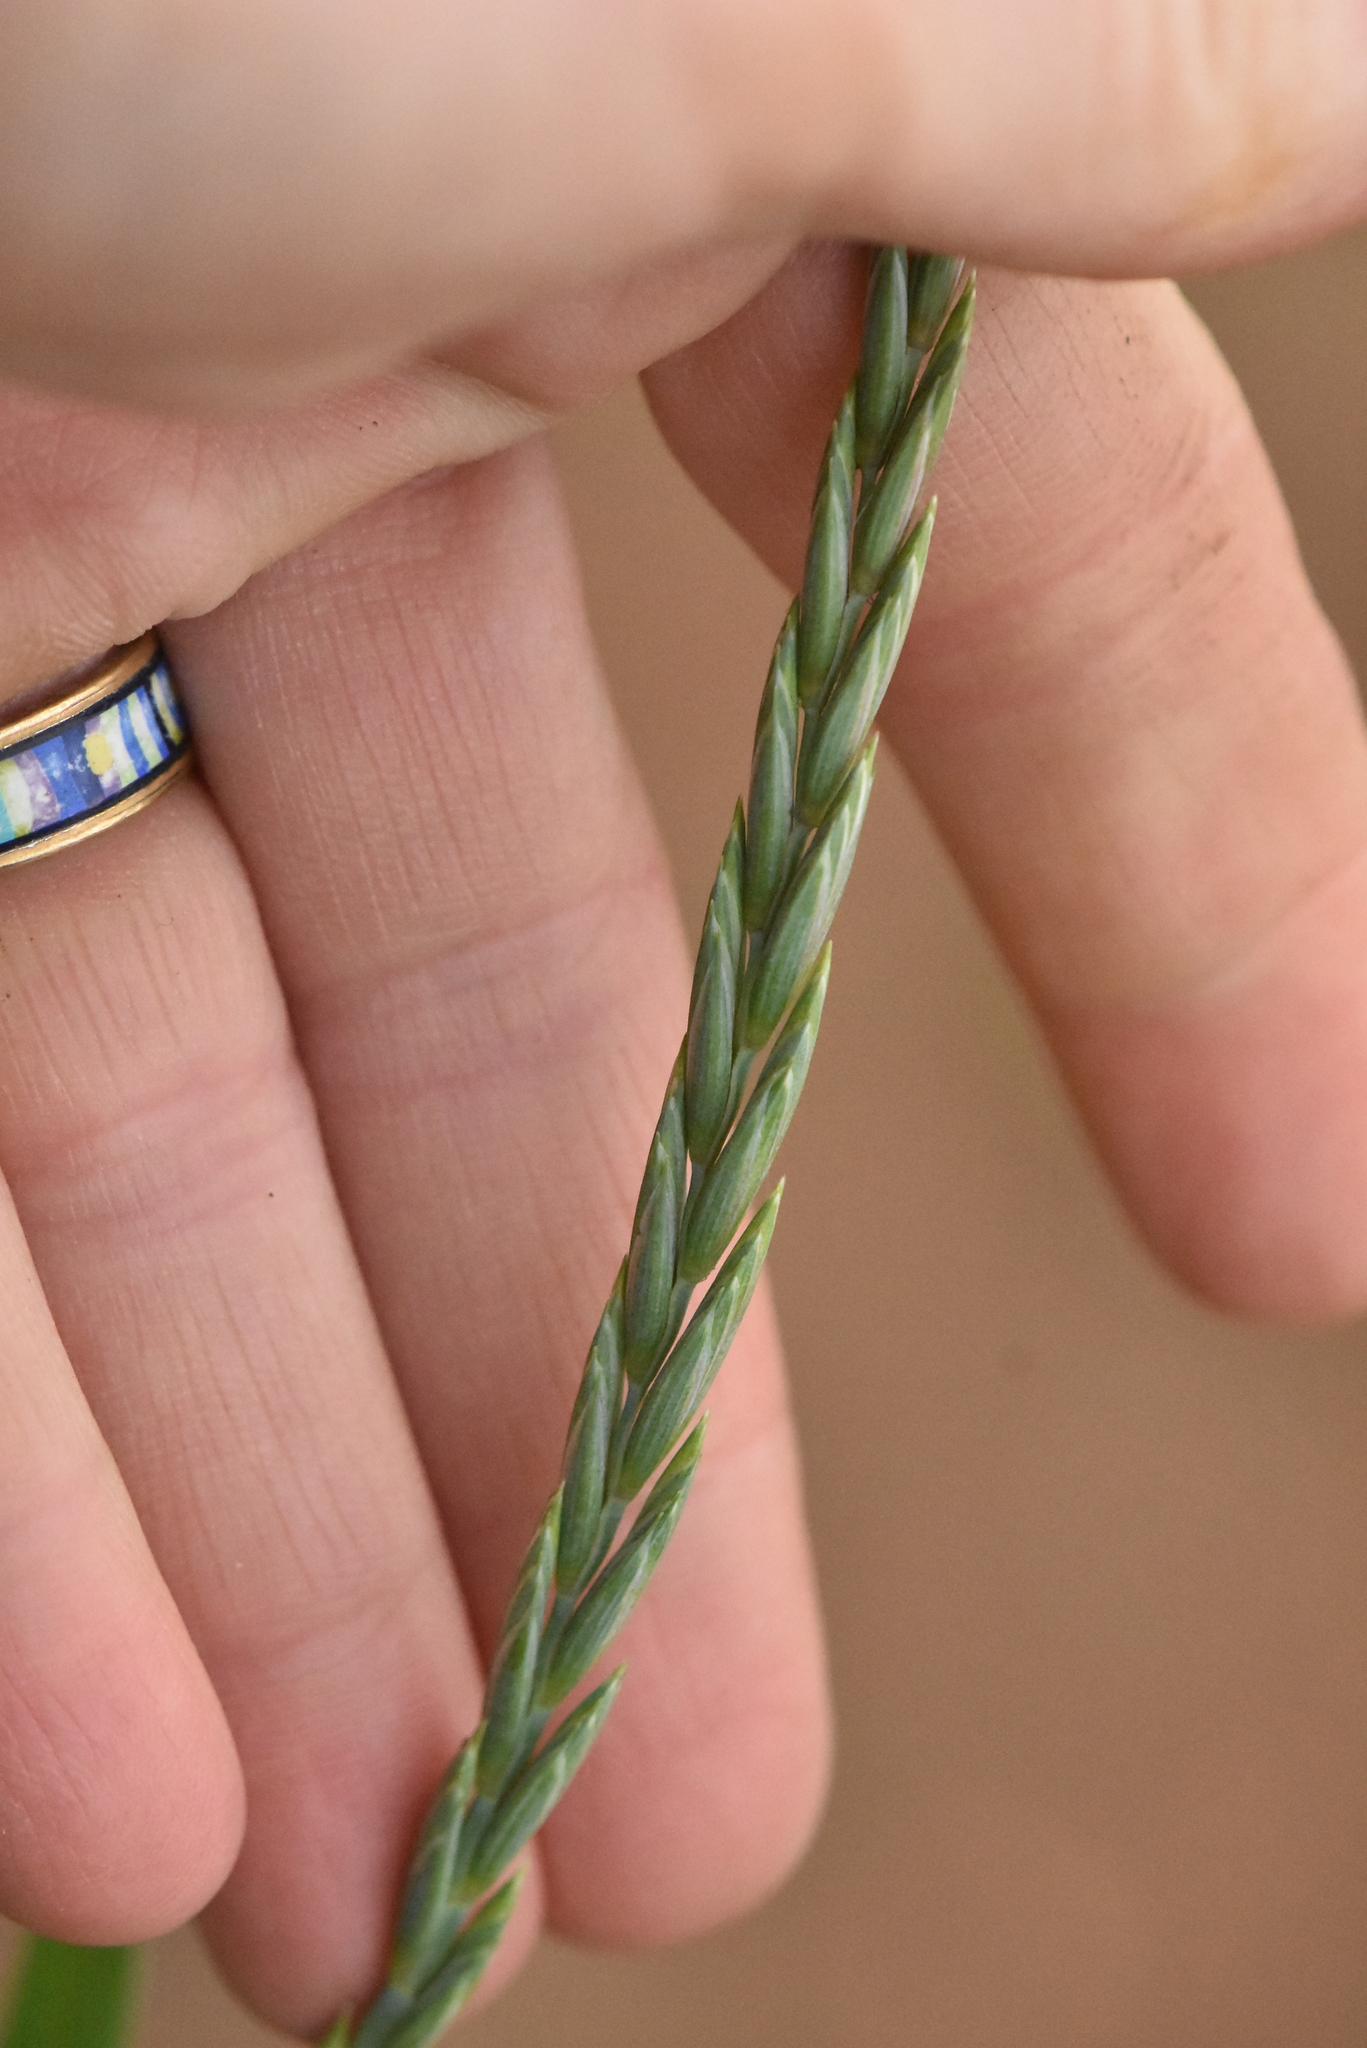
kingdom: Plantae
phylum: Tracheophyta
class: Liliopsida
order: Poales
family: Poaceae
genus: Elymus
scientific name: Elymus repens
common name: Quackgrass
